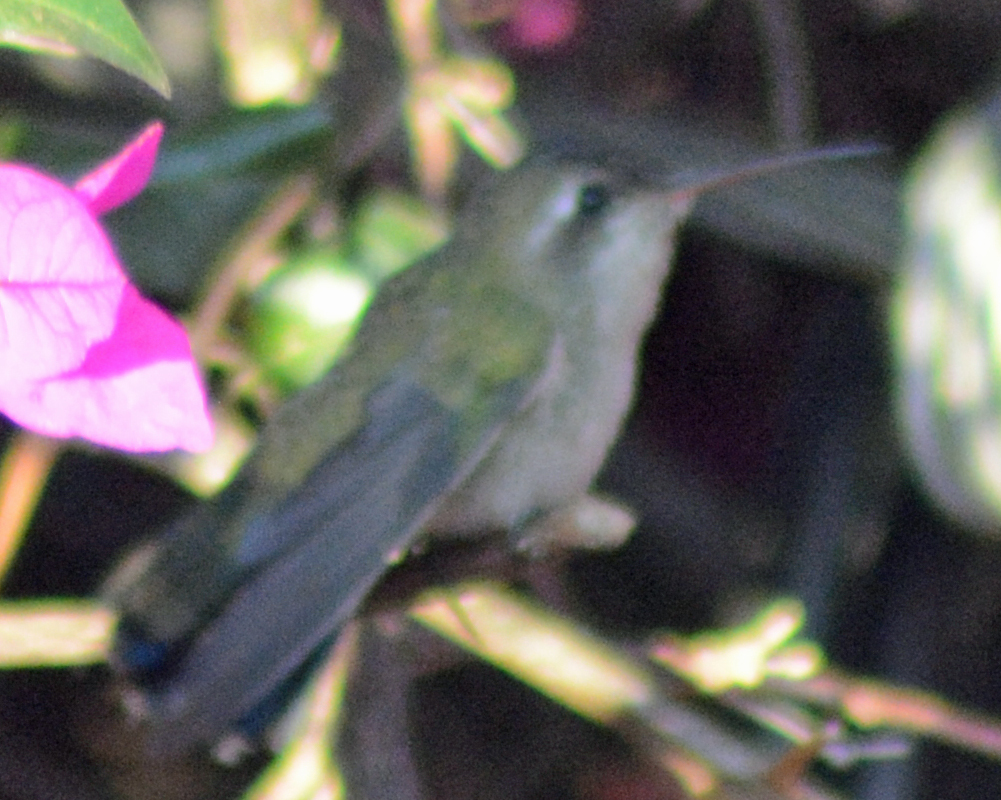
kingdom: Animalia
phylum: Chordata
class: Aves
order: Apodiformes
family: Trochilidae
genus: Cynanthus
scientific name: Cynanthus latirostris
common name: Broad-billed hummingbird
